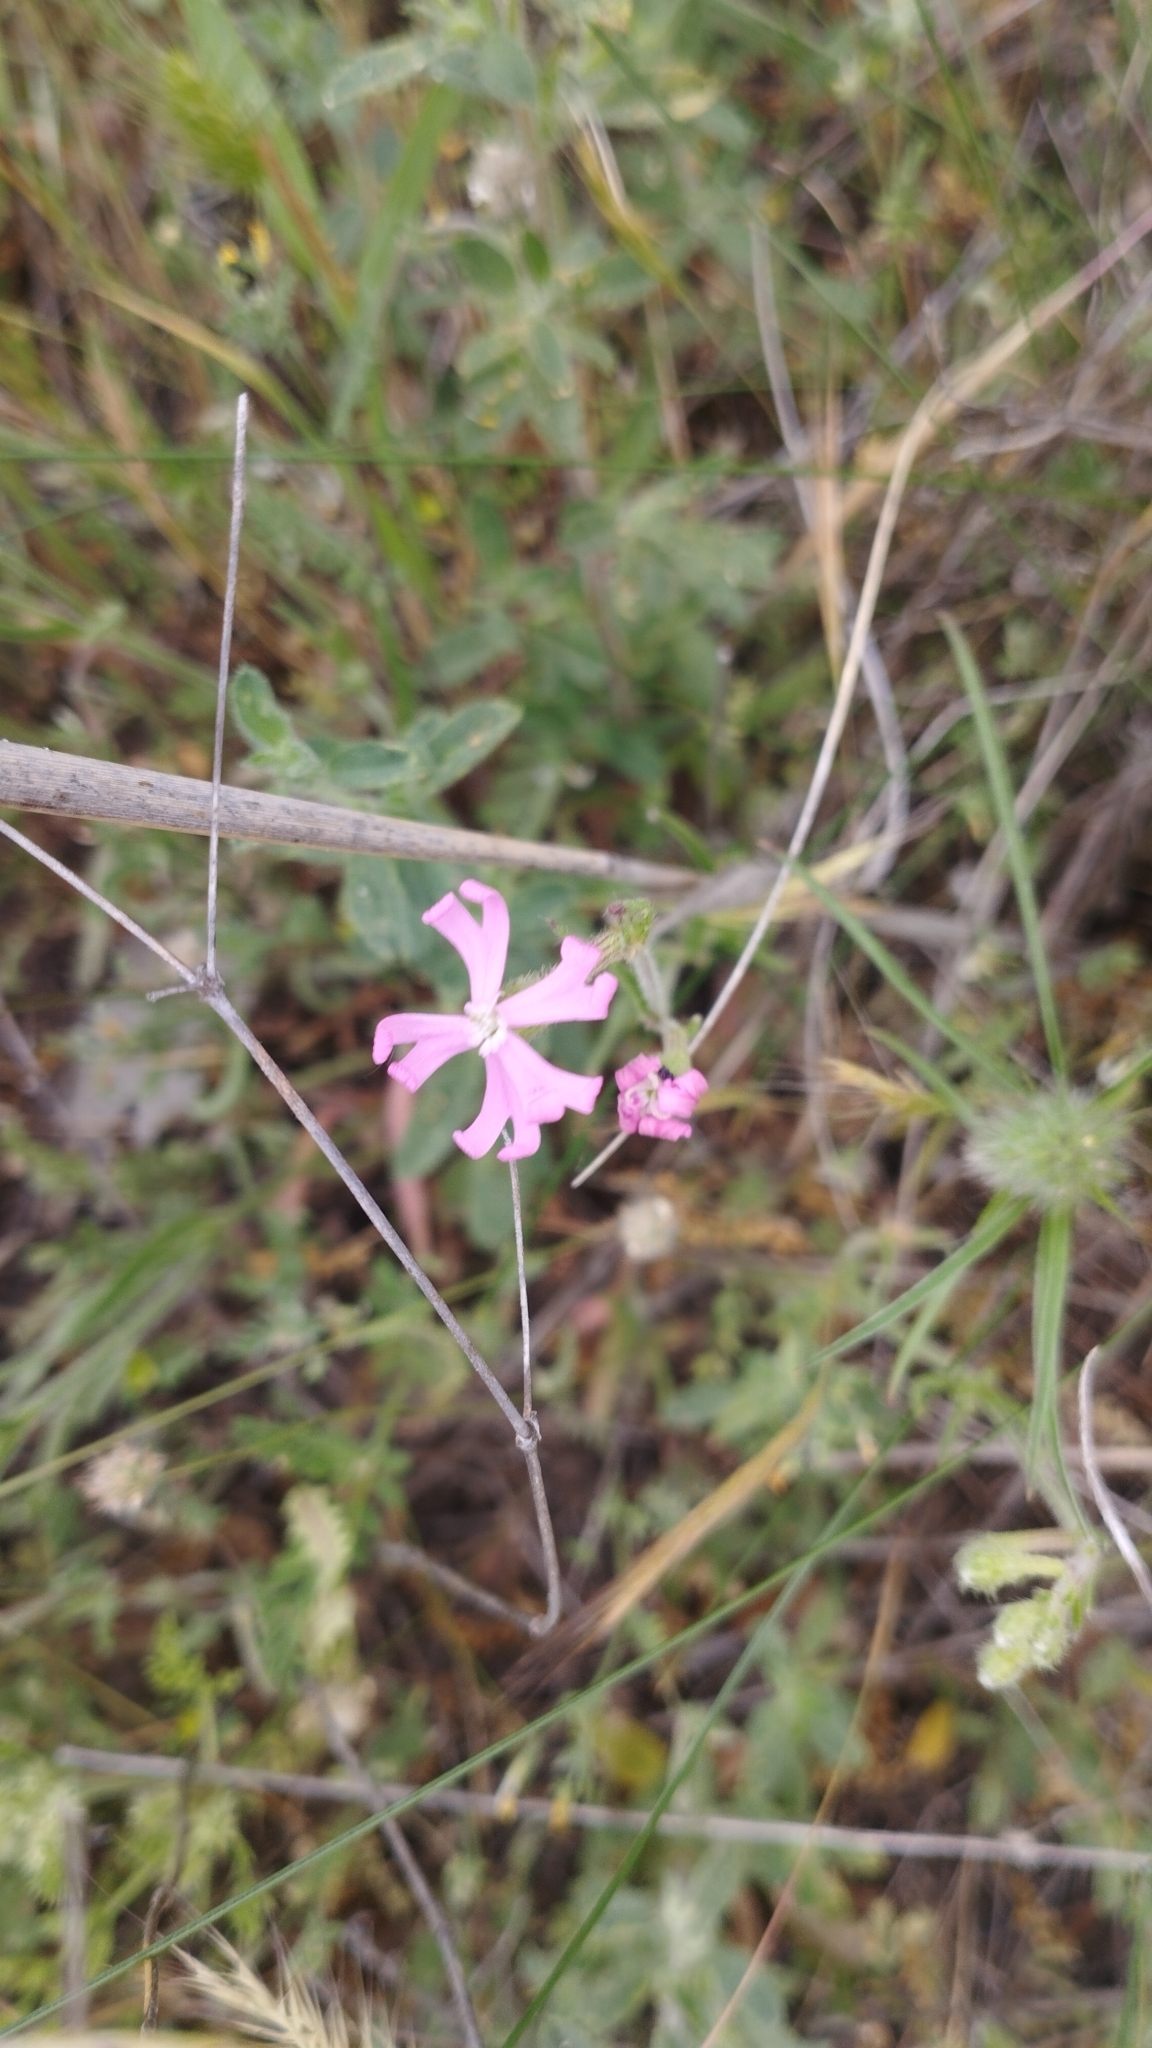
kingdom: Plantae
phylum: Tracheophyta
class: Magnoliopsida
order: Caryophyllales
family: Caryophyllaceae
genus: Silene
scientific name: Silene scabriflora
